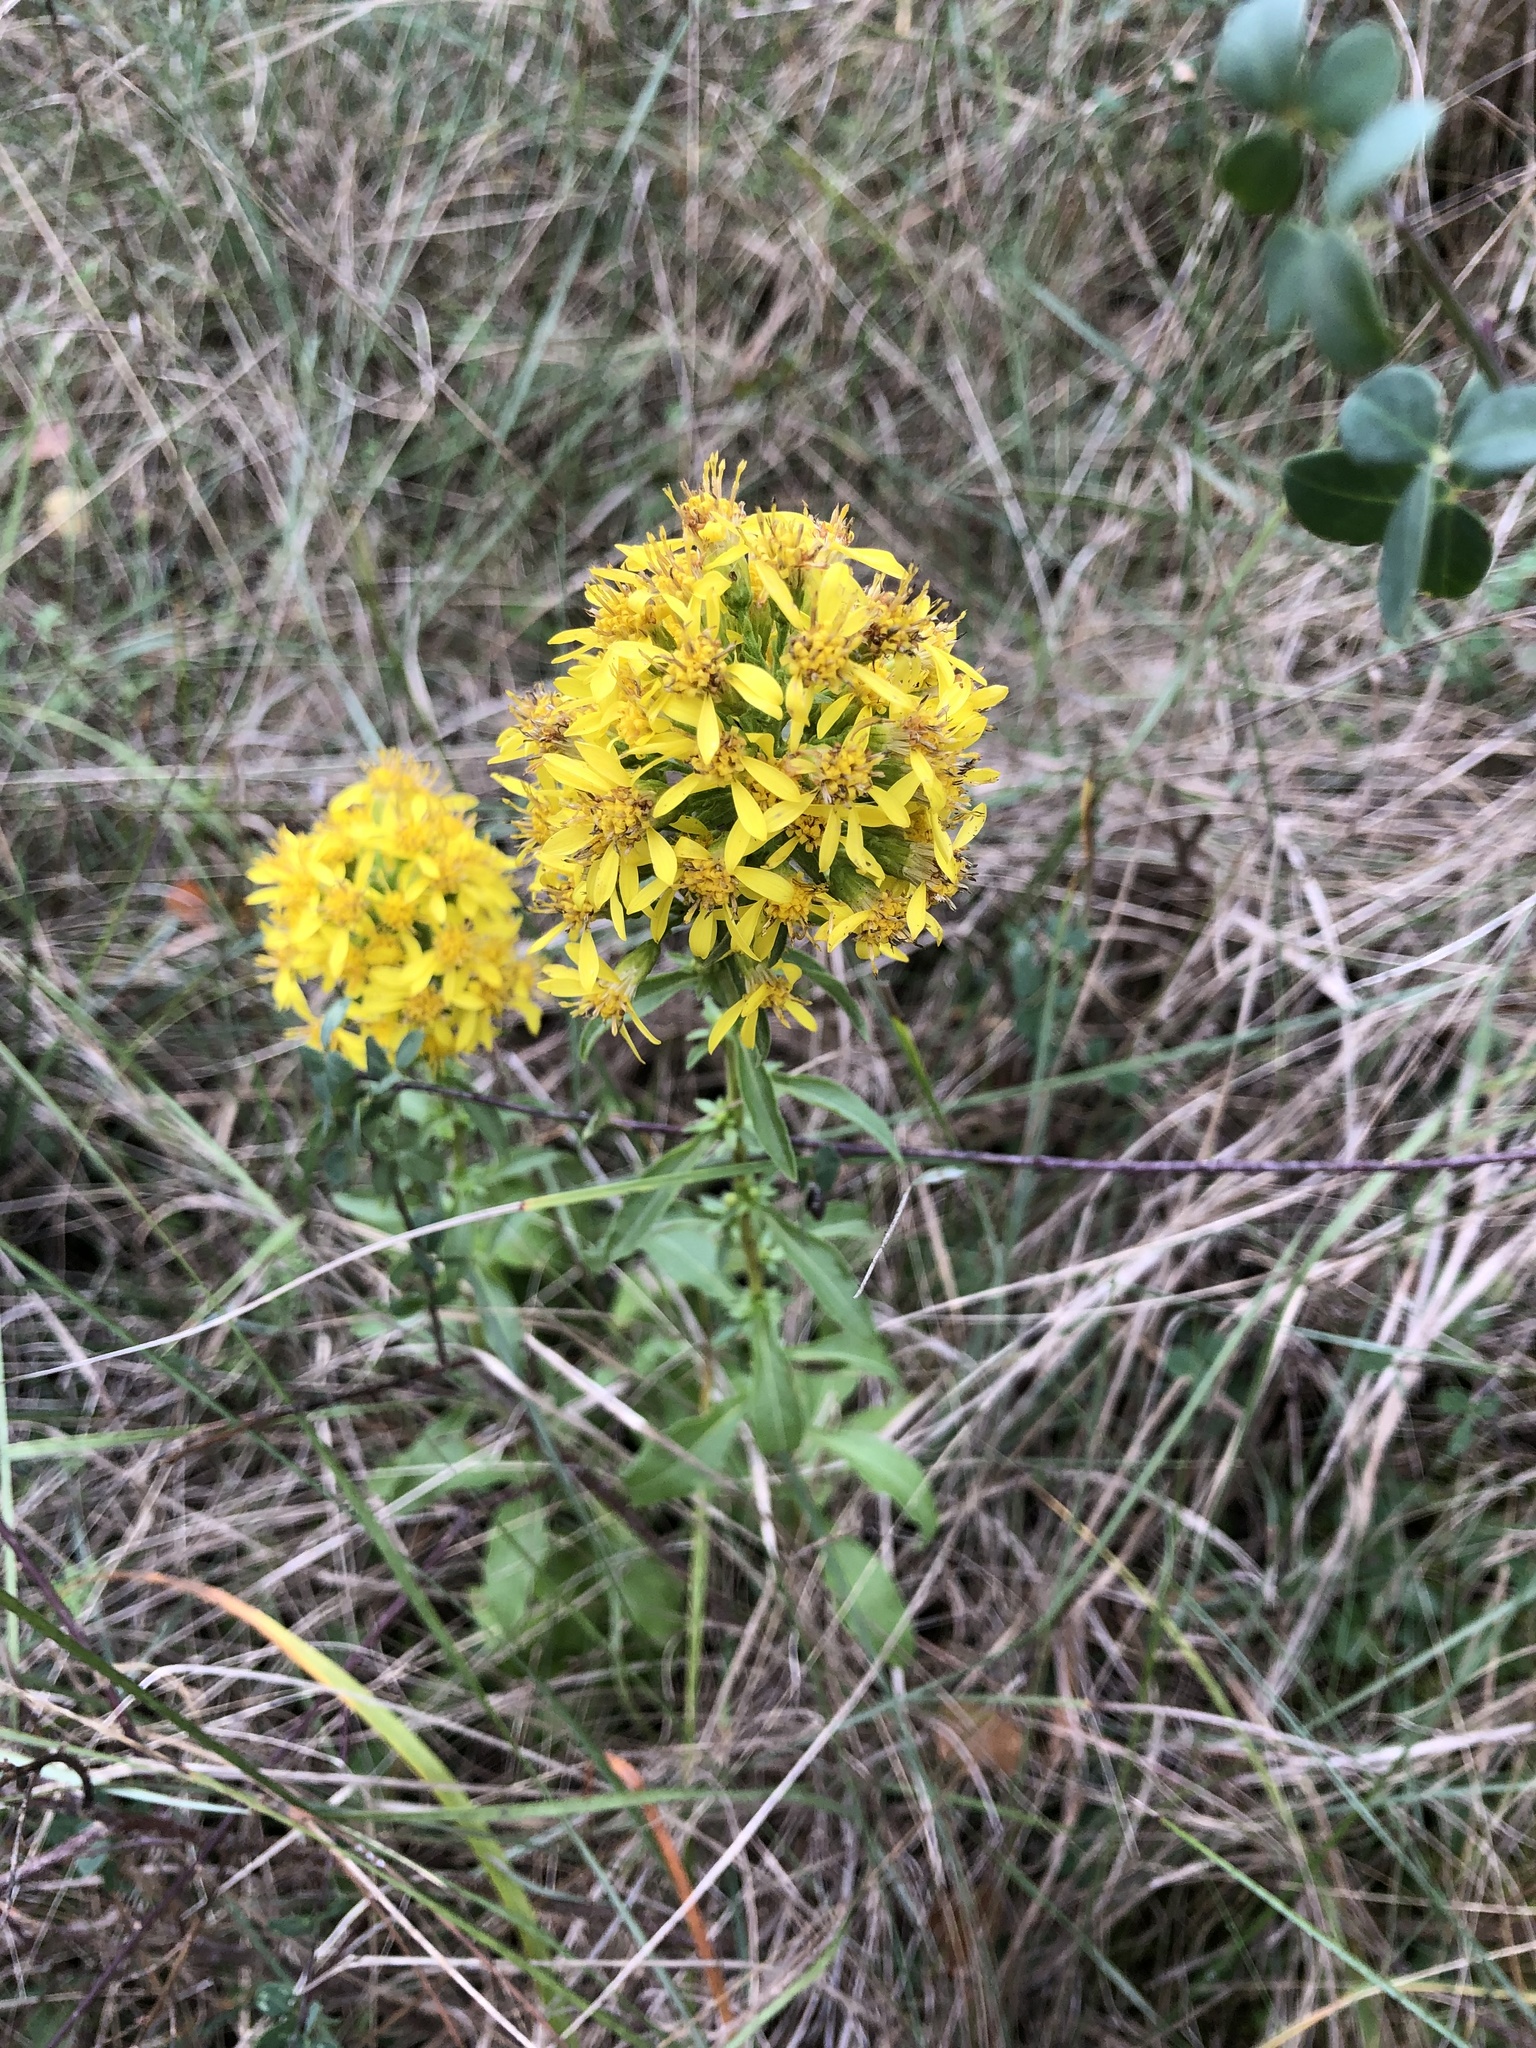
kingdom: Plantae
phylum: Tracheophyta
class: Magnoliopsida
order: Asterales
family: Asteraceae
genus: Solidago
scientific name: Solidago virgaurea
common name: Goldenrod
